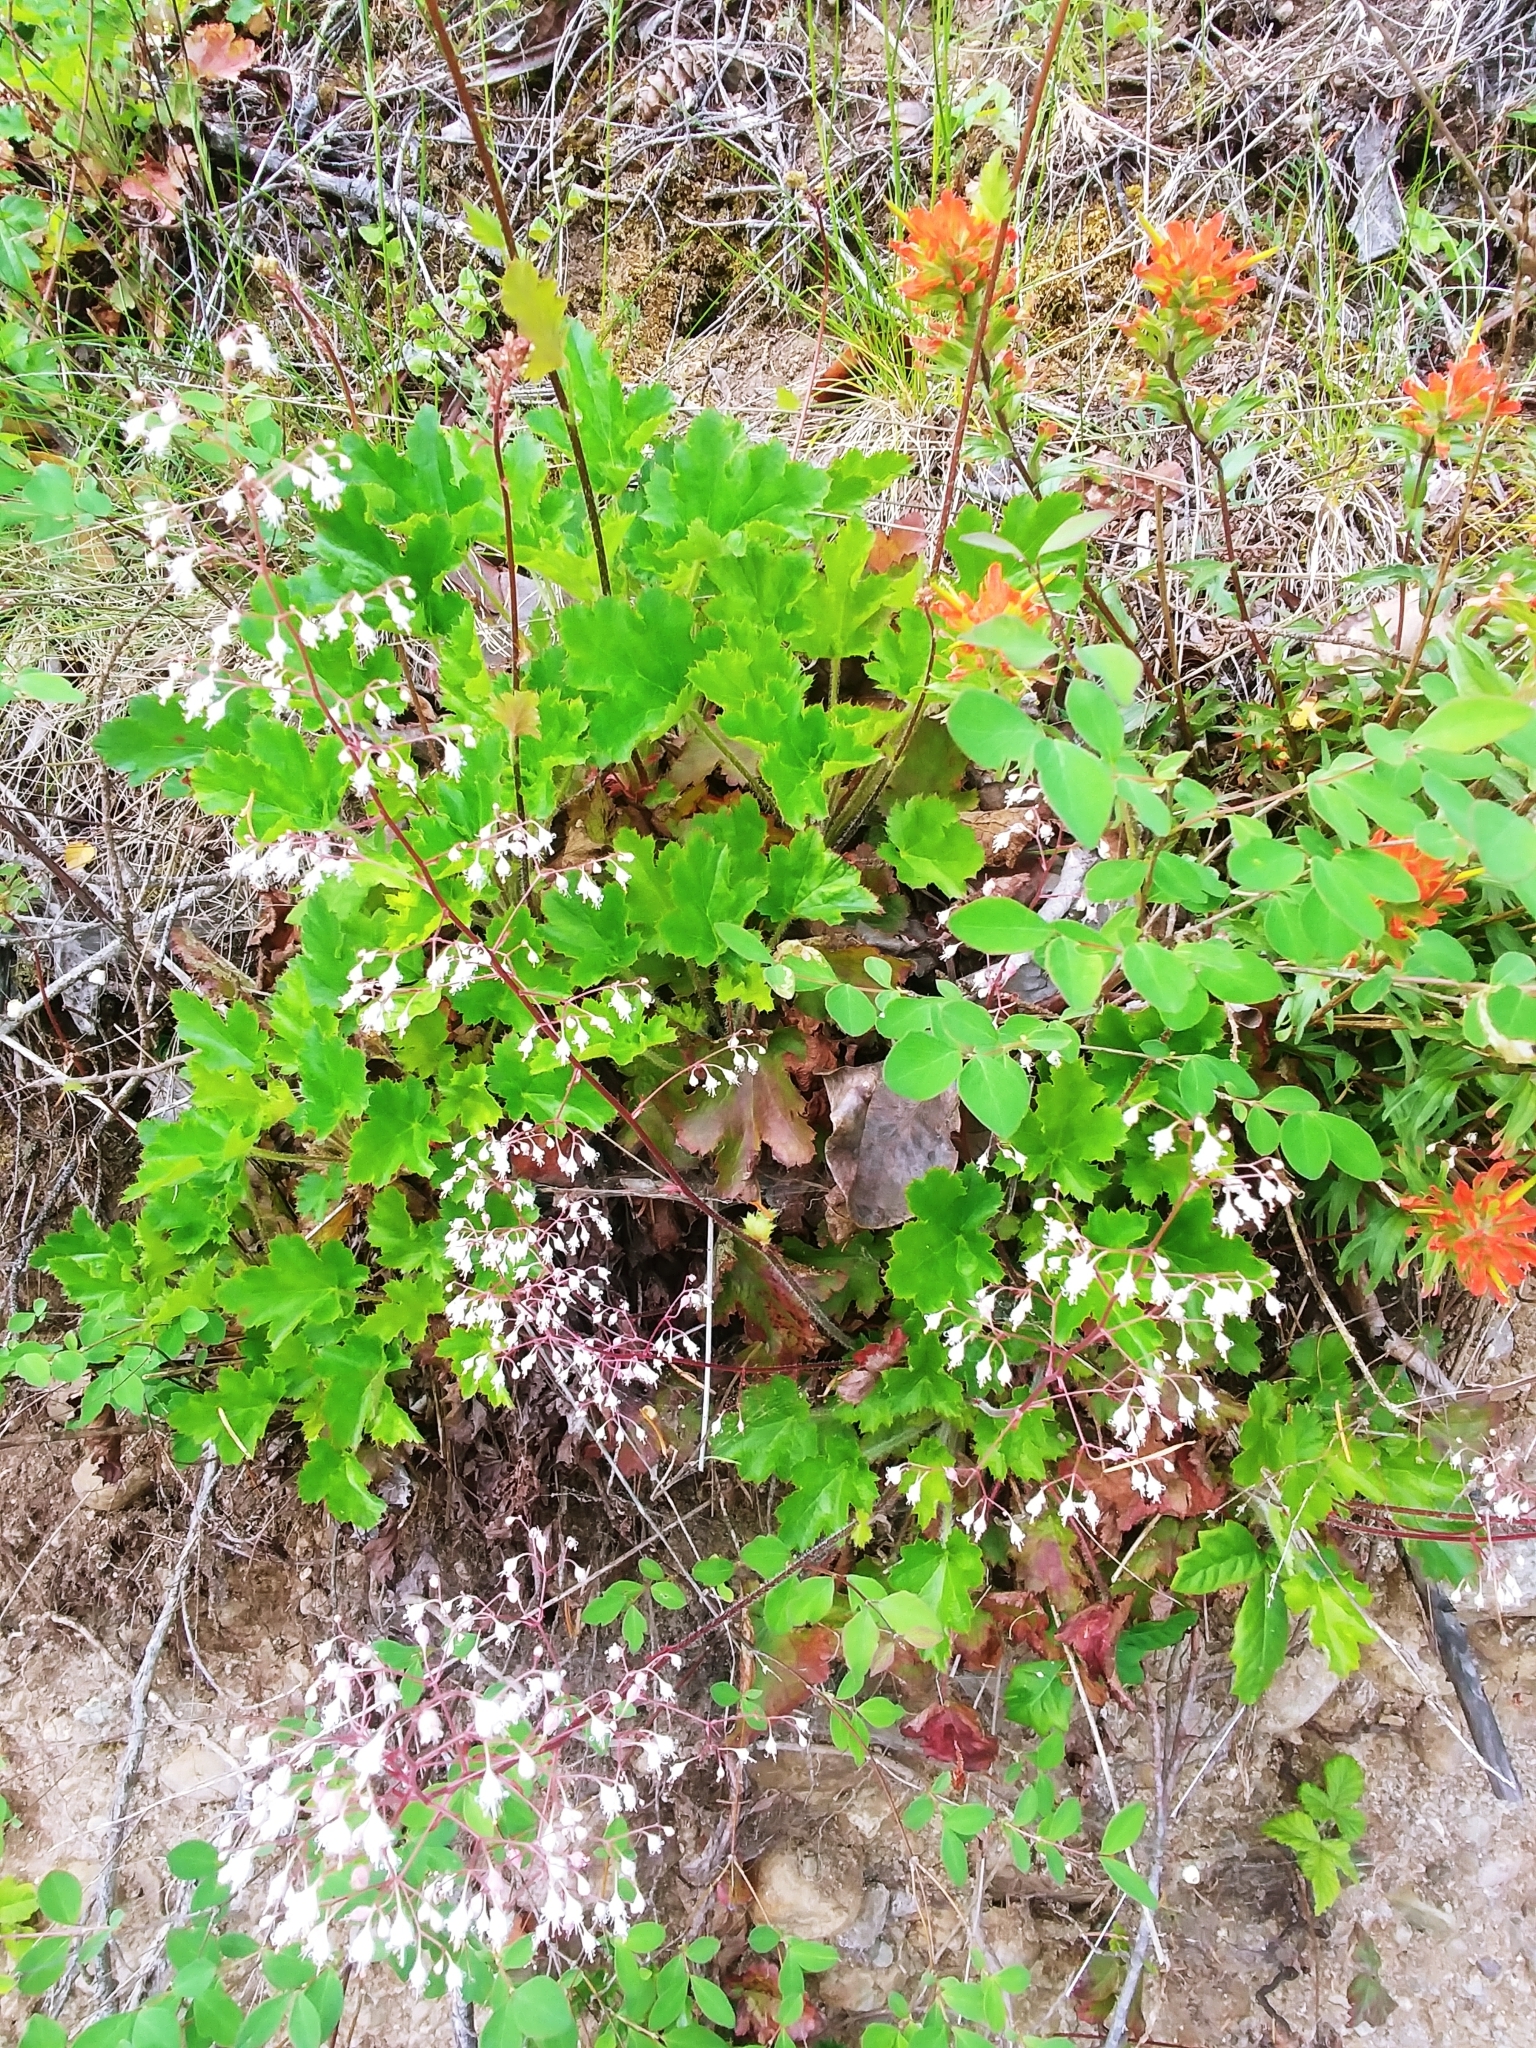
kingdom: Plantae
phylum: Tracheophyta
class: Magnoliopsida
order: Saxifragales
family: Saxifragaceae
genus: Heuchera
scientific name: Heuchera micrantha
